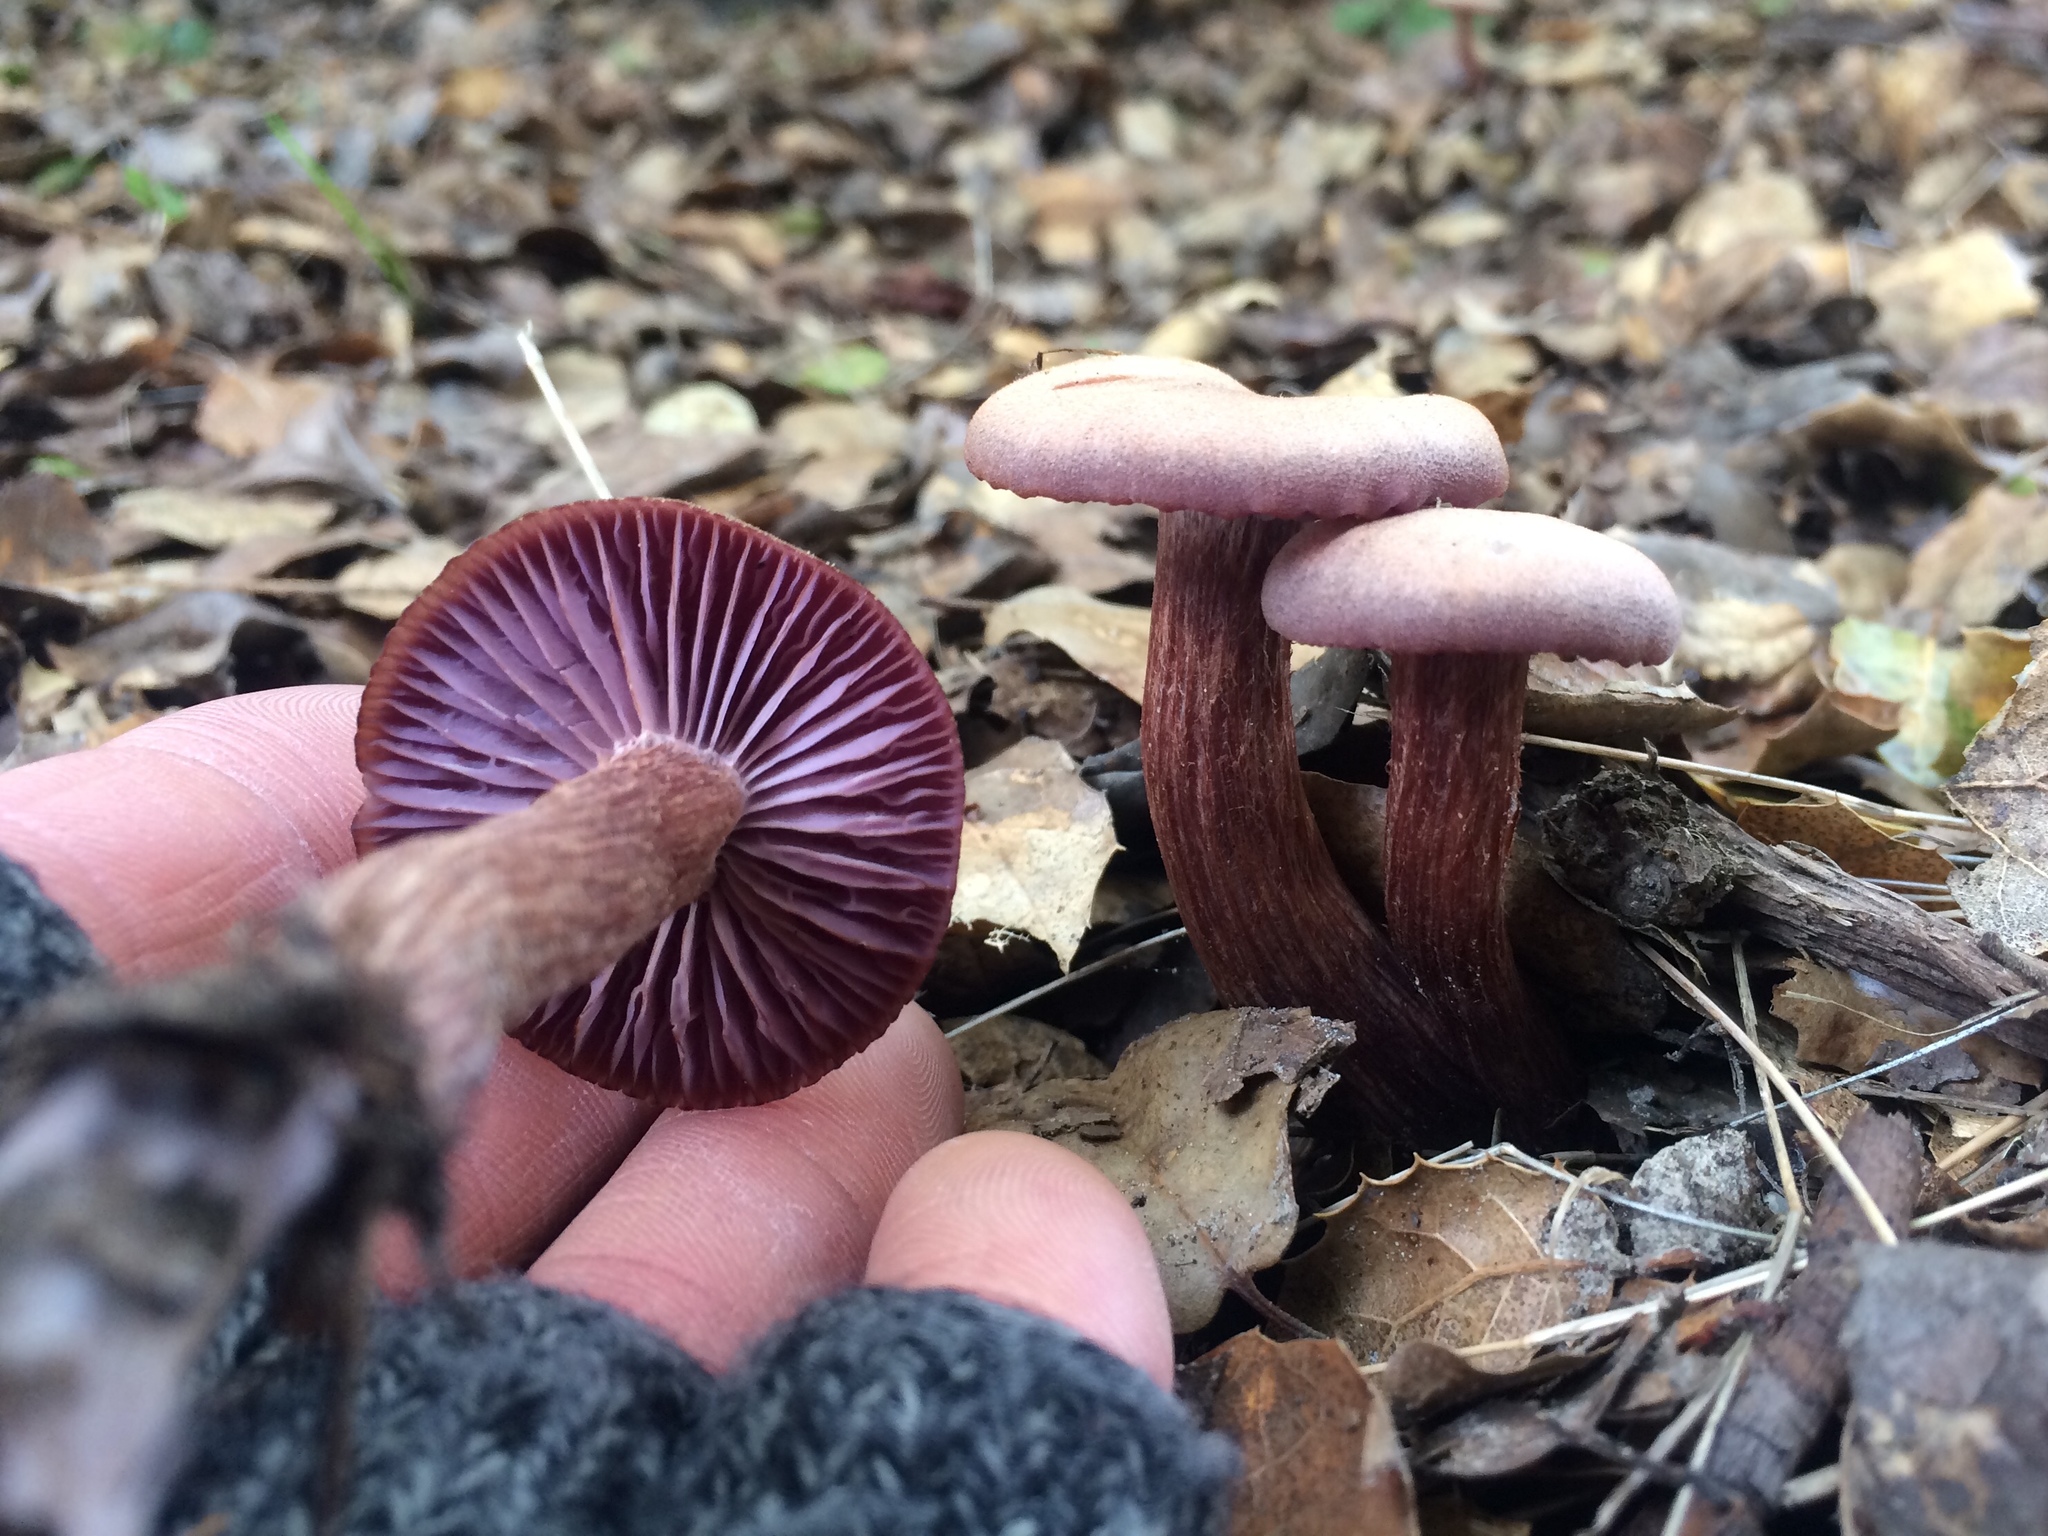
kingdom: Fungi
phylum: Basidiomycota
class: Agaricomycetes
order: Agaricales
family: Hydnangiaceae
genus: Laccaria
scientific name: Laccaria amethysteo-occidentalis
